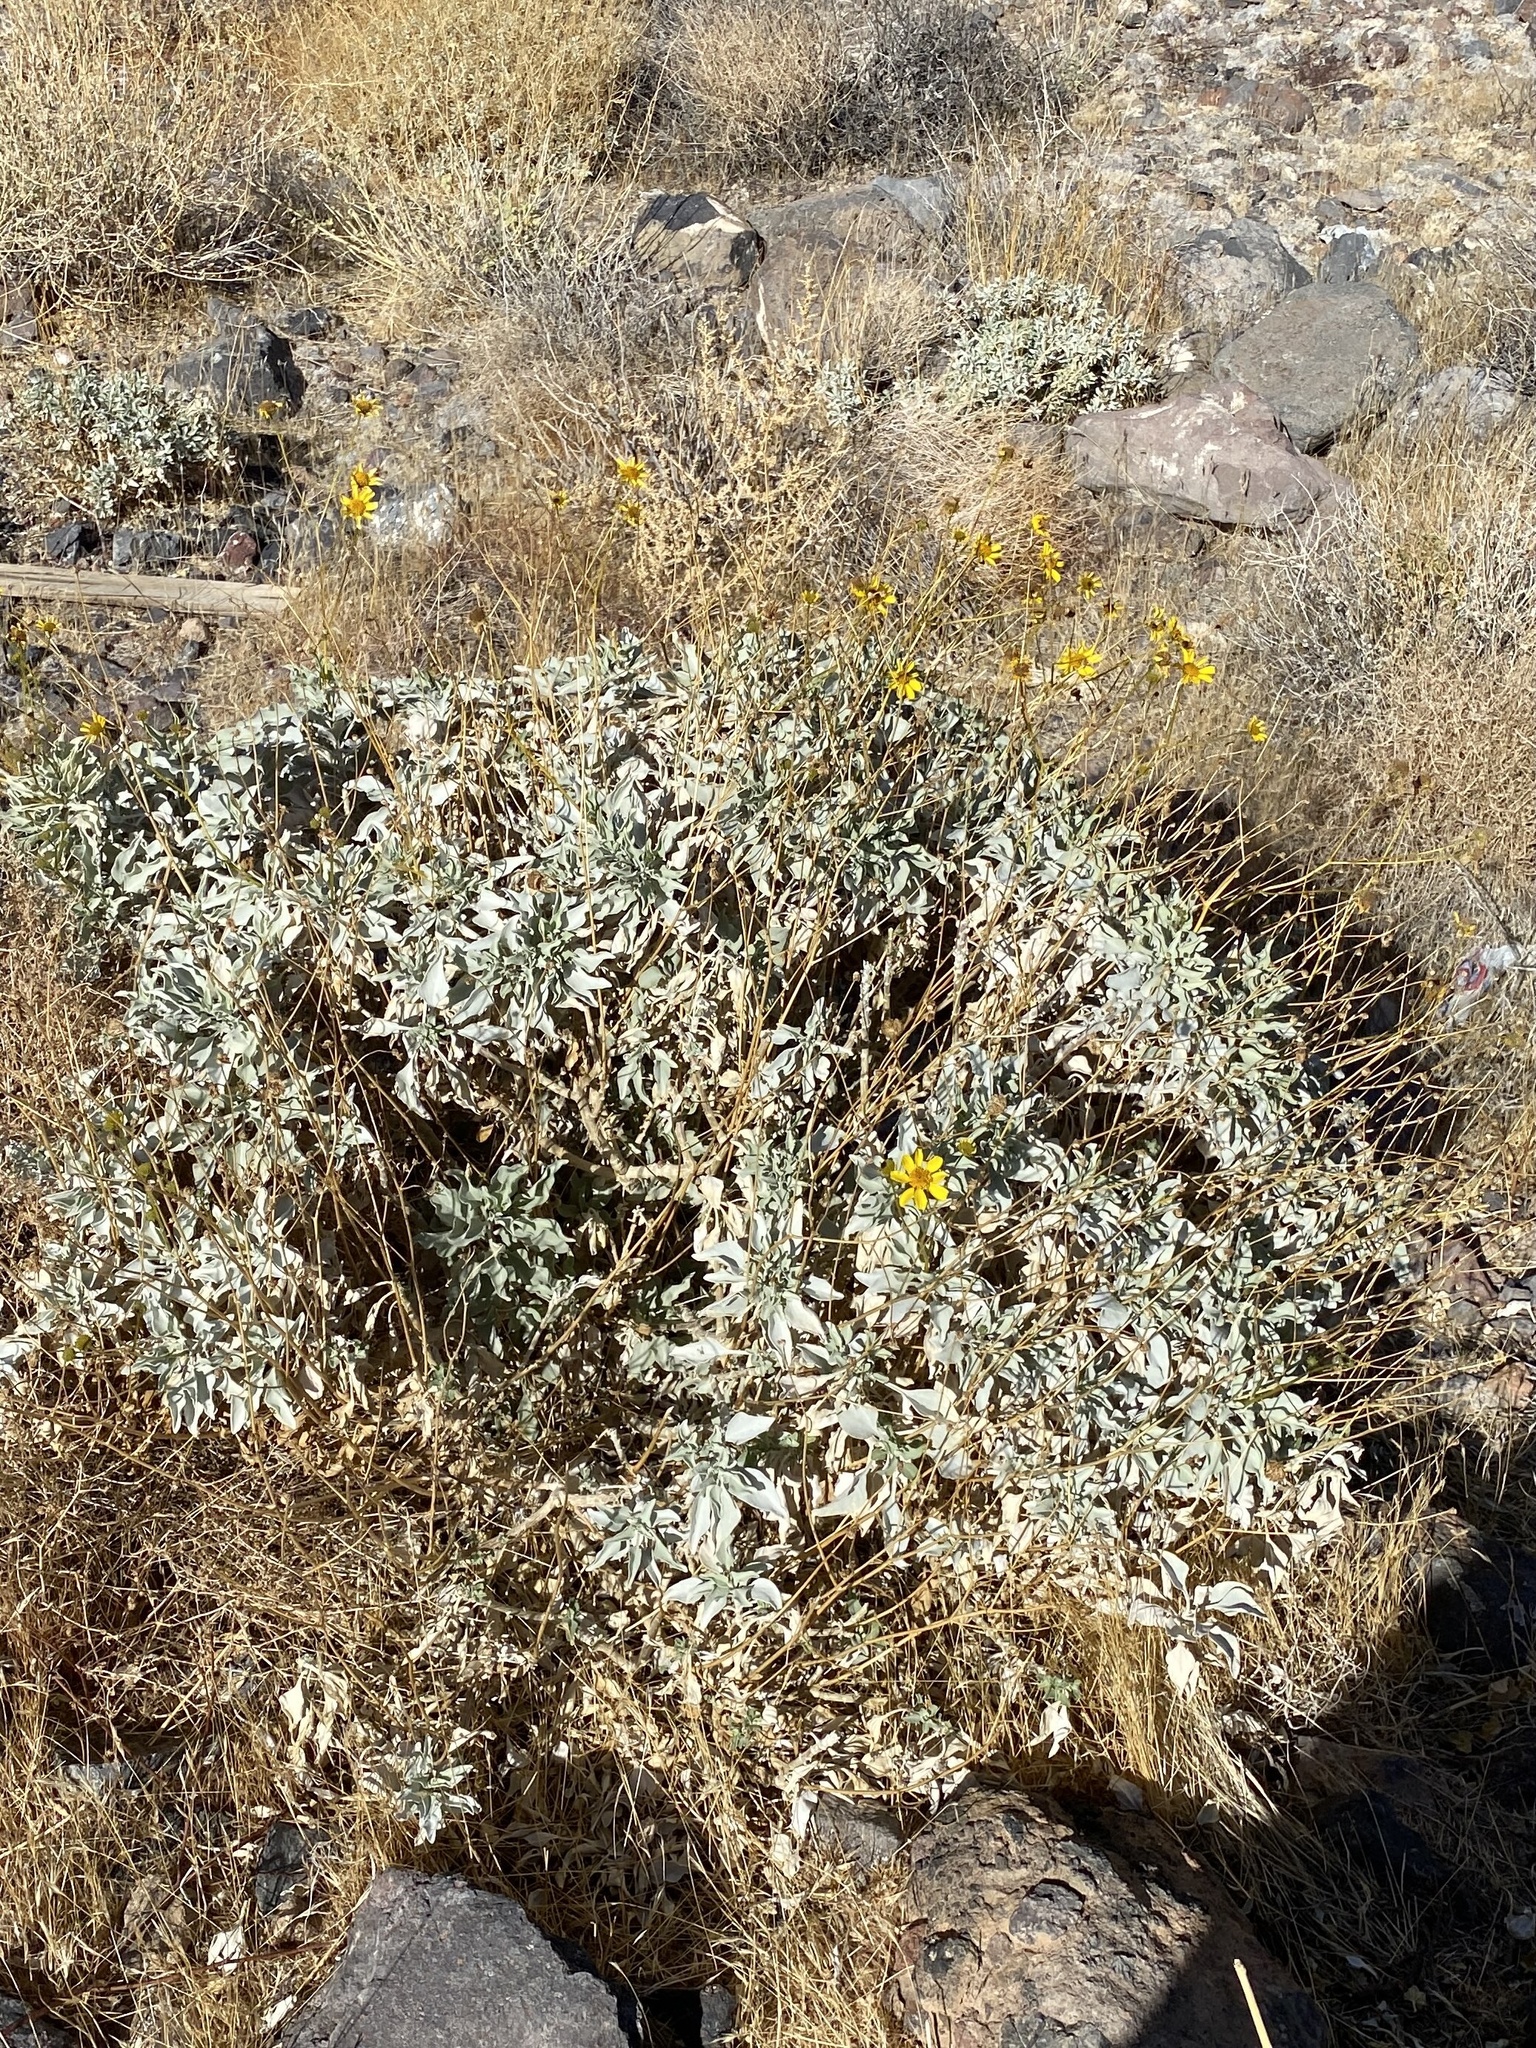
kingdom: Plantae
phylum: Tracheophyta
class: Magnoliopsida
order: Asterales
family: Asteraceae
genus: Encelia
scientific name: Encelia farinosa
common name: Brittlebush
